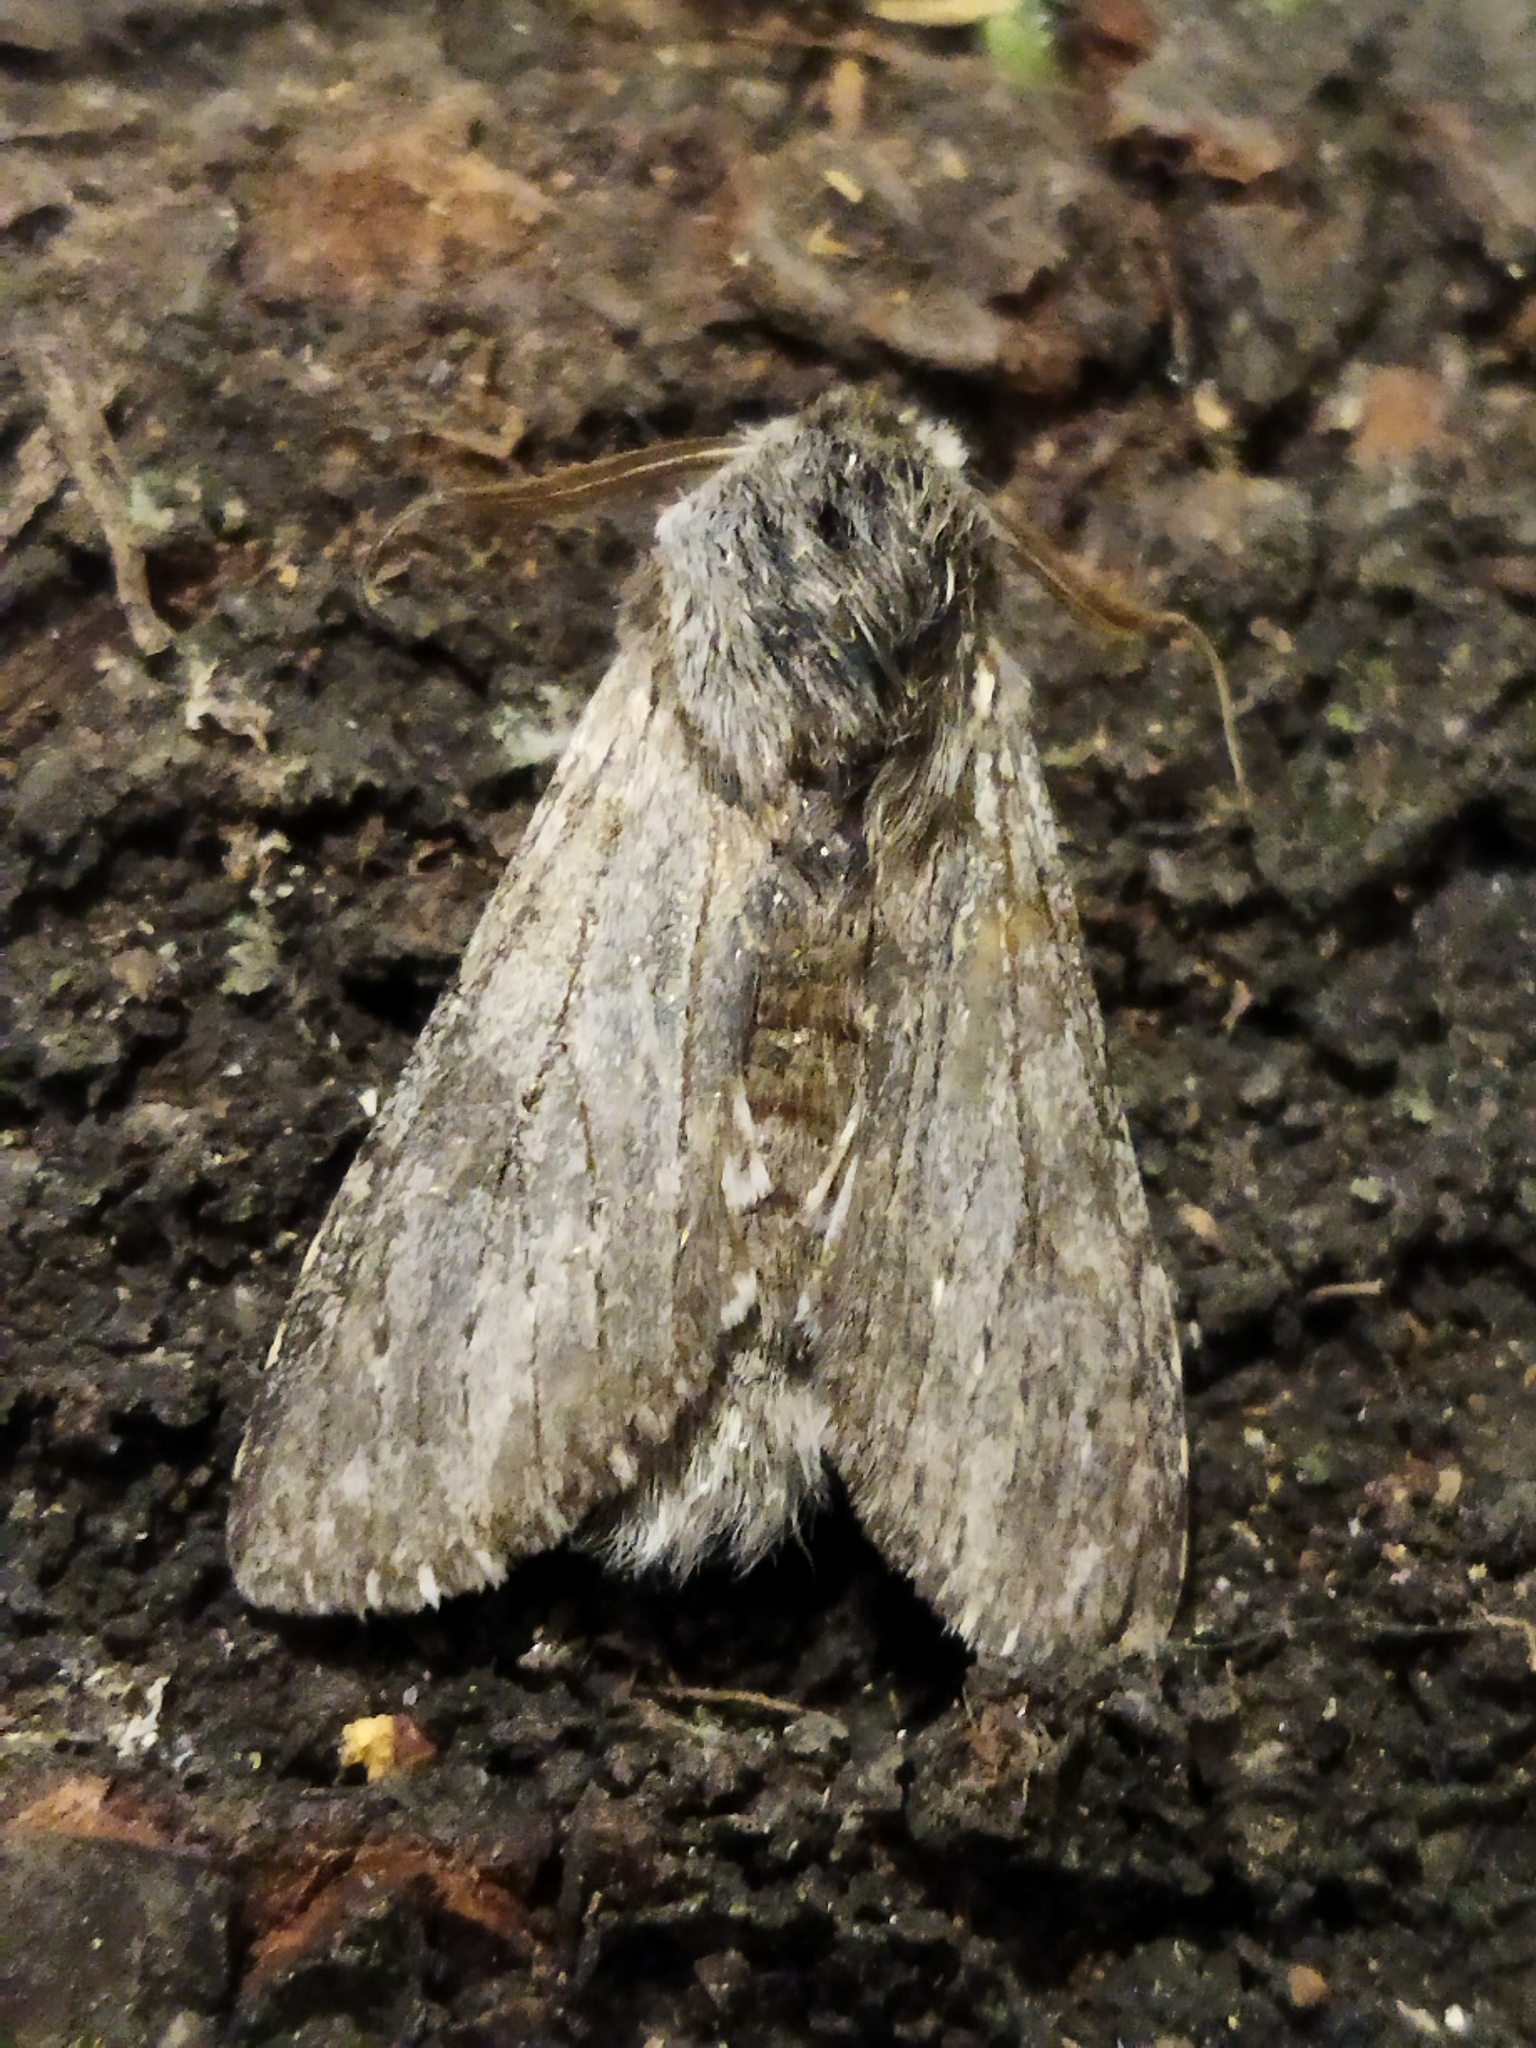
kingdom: Animalia
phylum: Arthropoda
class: Insecta
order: Lepidoptera
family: Notodontidae
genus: Dicranura
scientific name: Dicranura ulmi
